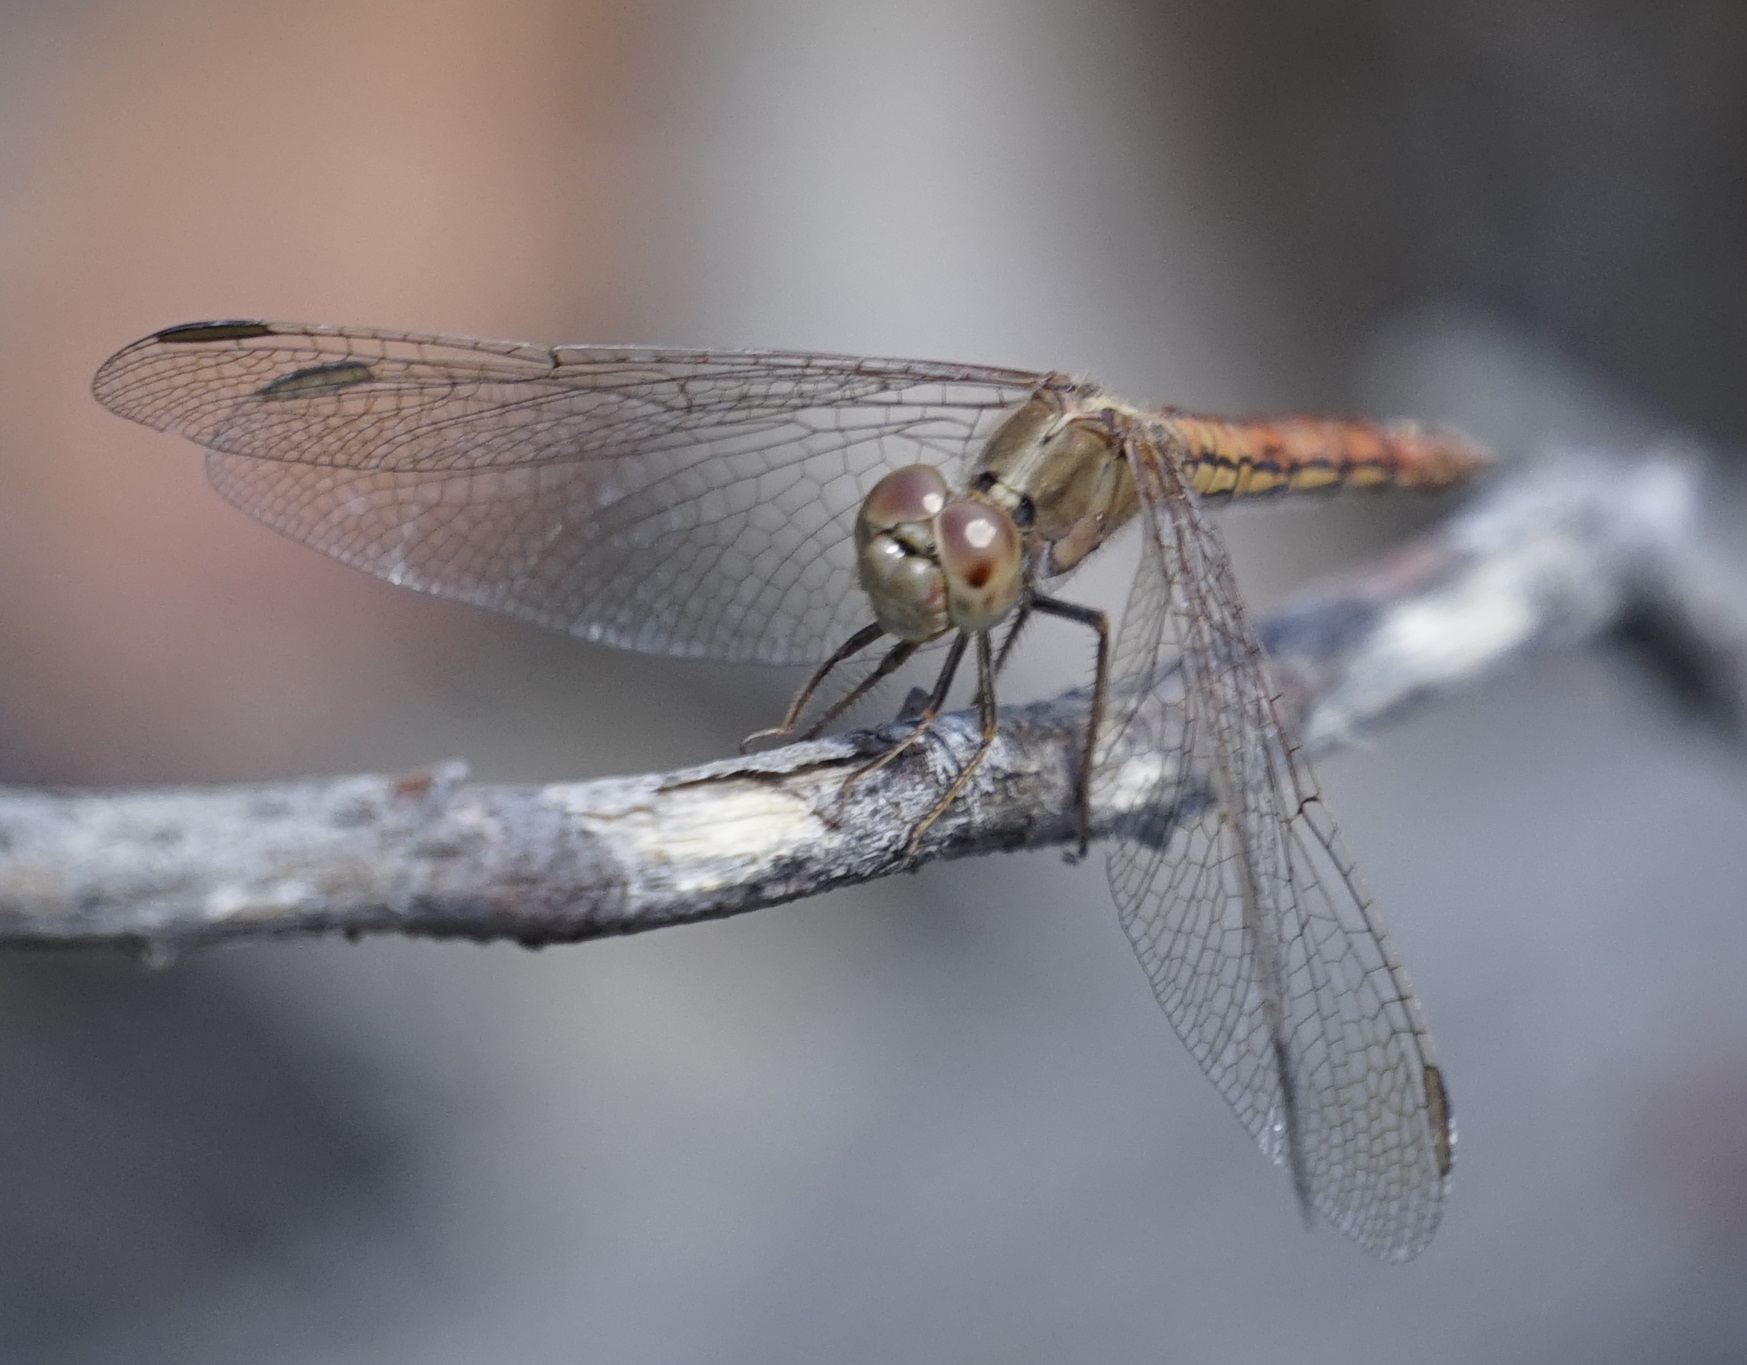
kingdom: Animalia
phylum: Arthropoda
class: Insecta
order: Odonata
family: Libellulidae
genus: Diplacodes
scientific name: Diplacodes haematodes
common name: Scarlet percher
